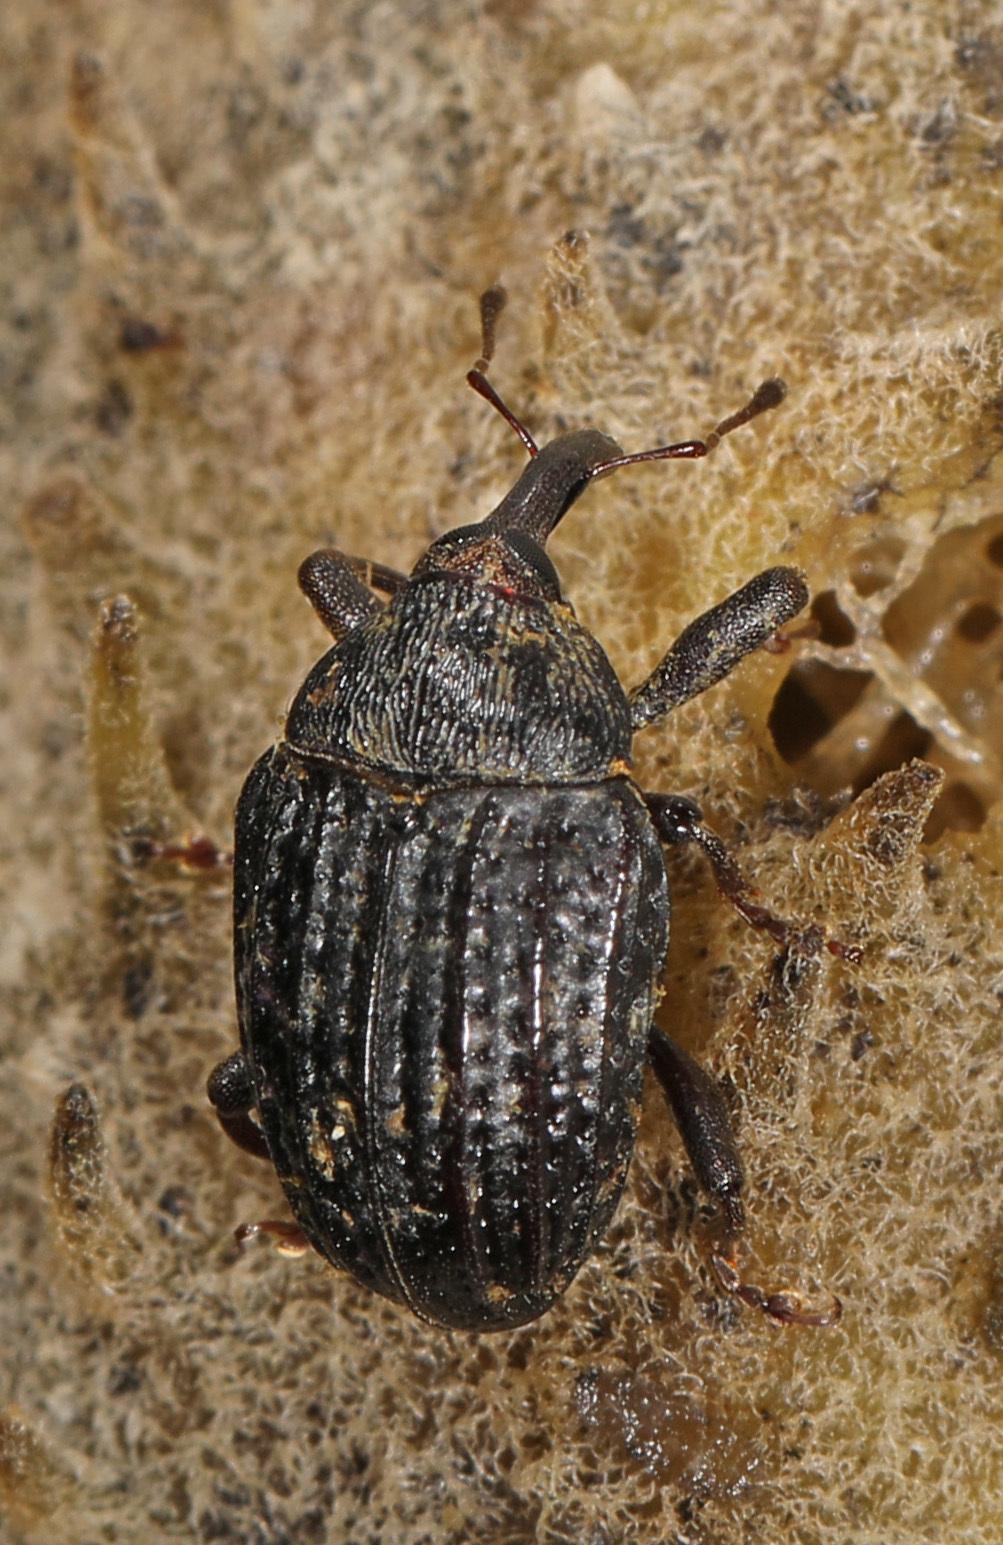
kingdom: Animalia
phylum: Arthropoda
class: Insecta
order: Coleoptera
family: Curculionidae
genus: Rhyssomatus
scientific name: Rhyssomatus lineaticollis
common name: Milkweed stem weevil
